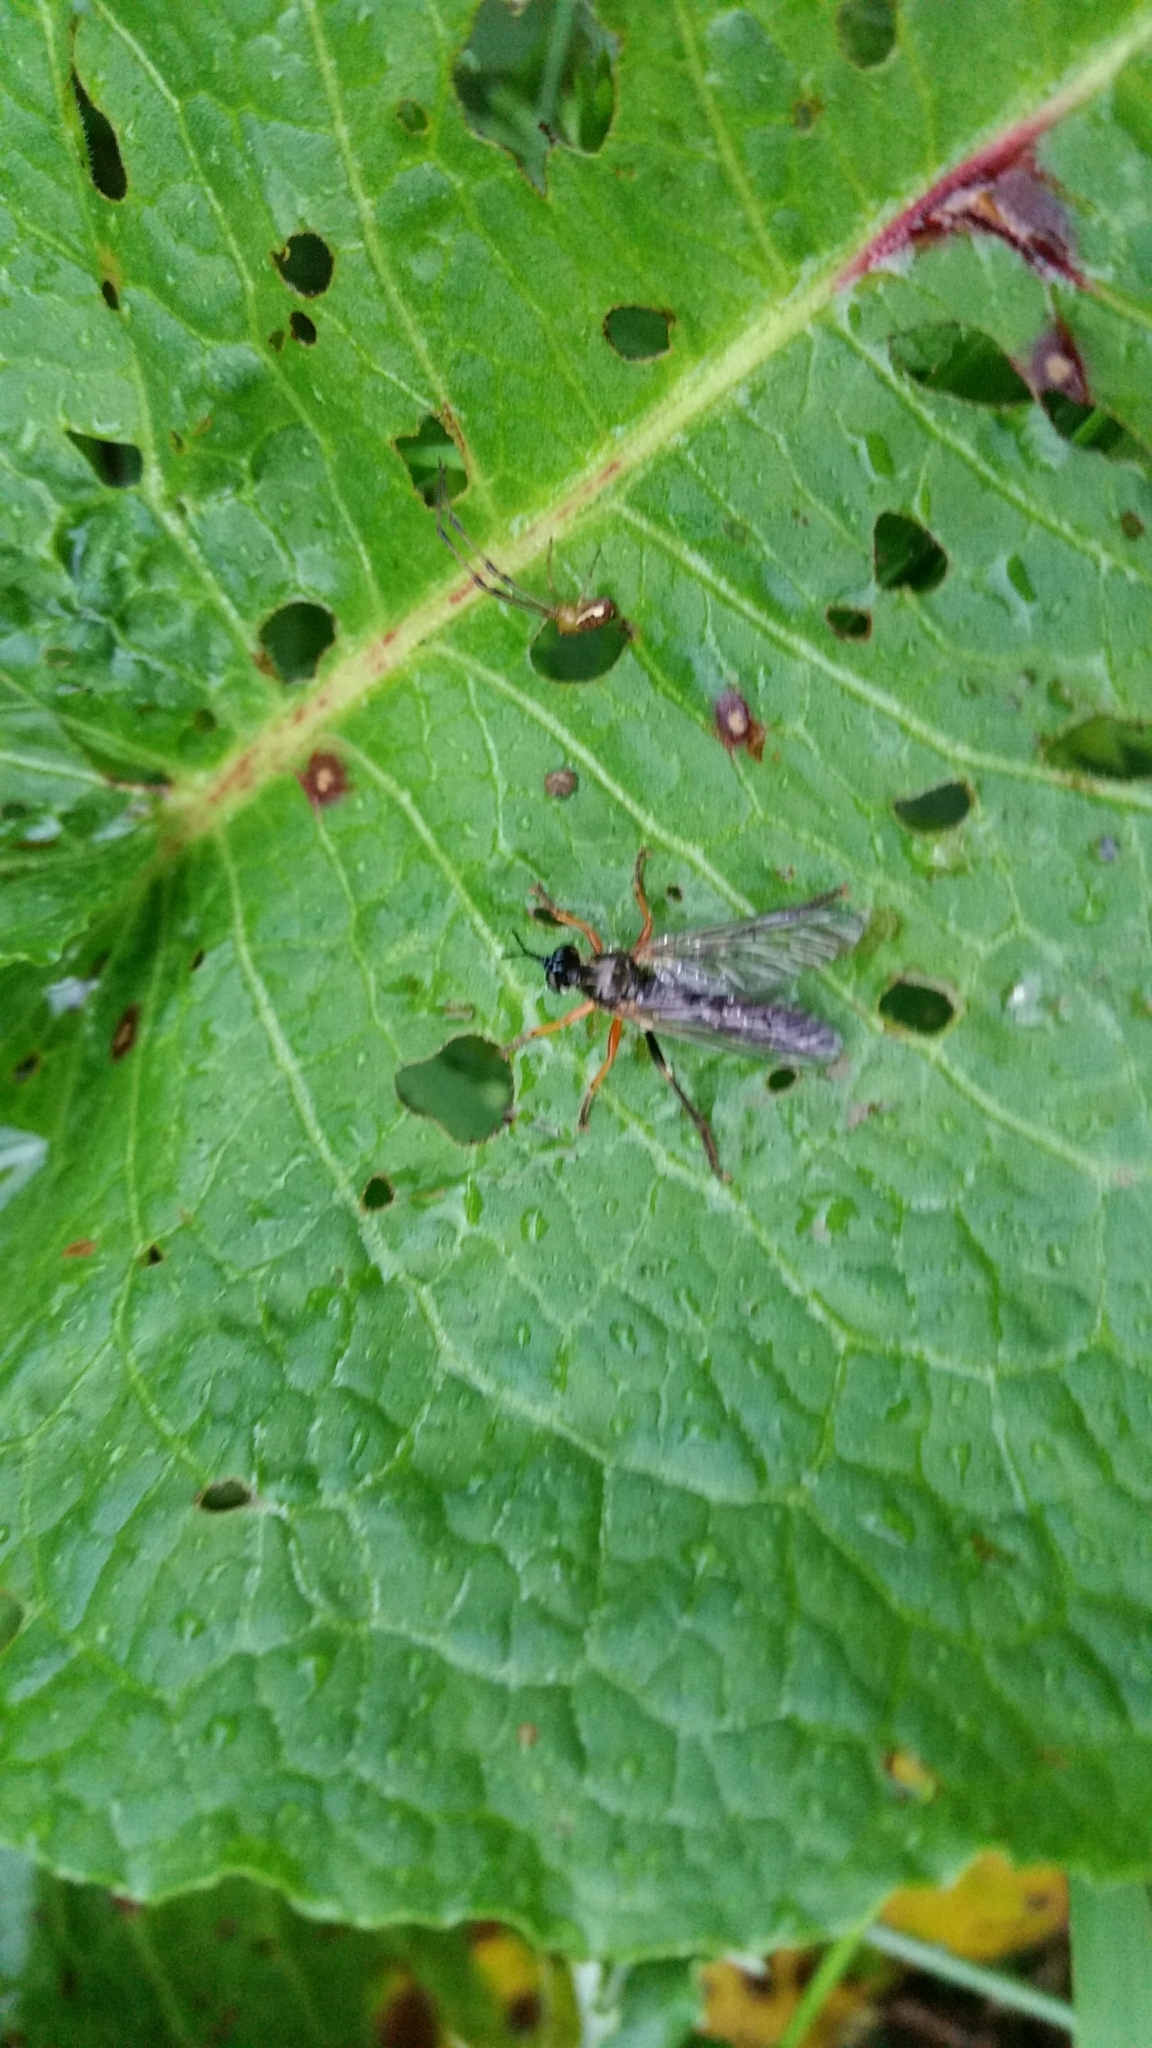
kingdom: Animalia
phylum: Arthropoda
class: Insecta
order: Diptera
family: Asilidae
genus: Dioctria
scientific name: Dioctria rufipes
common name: Common red-legged robberfly
